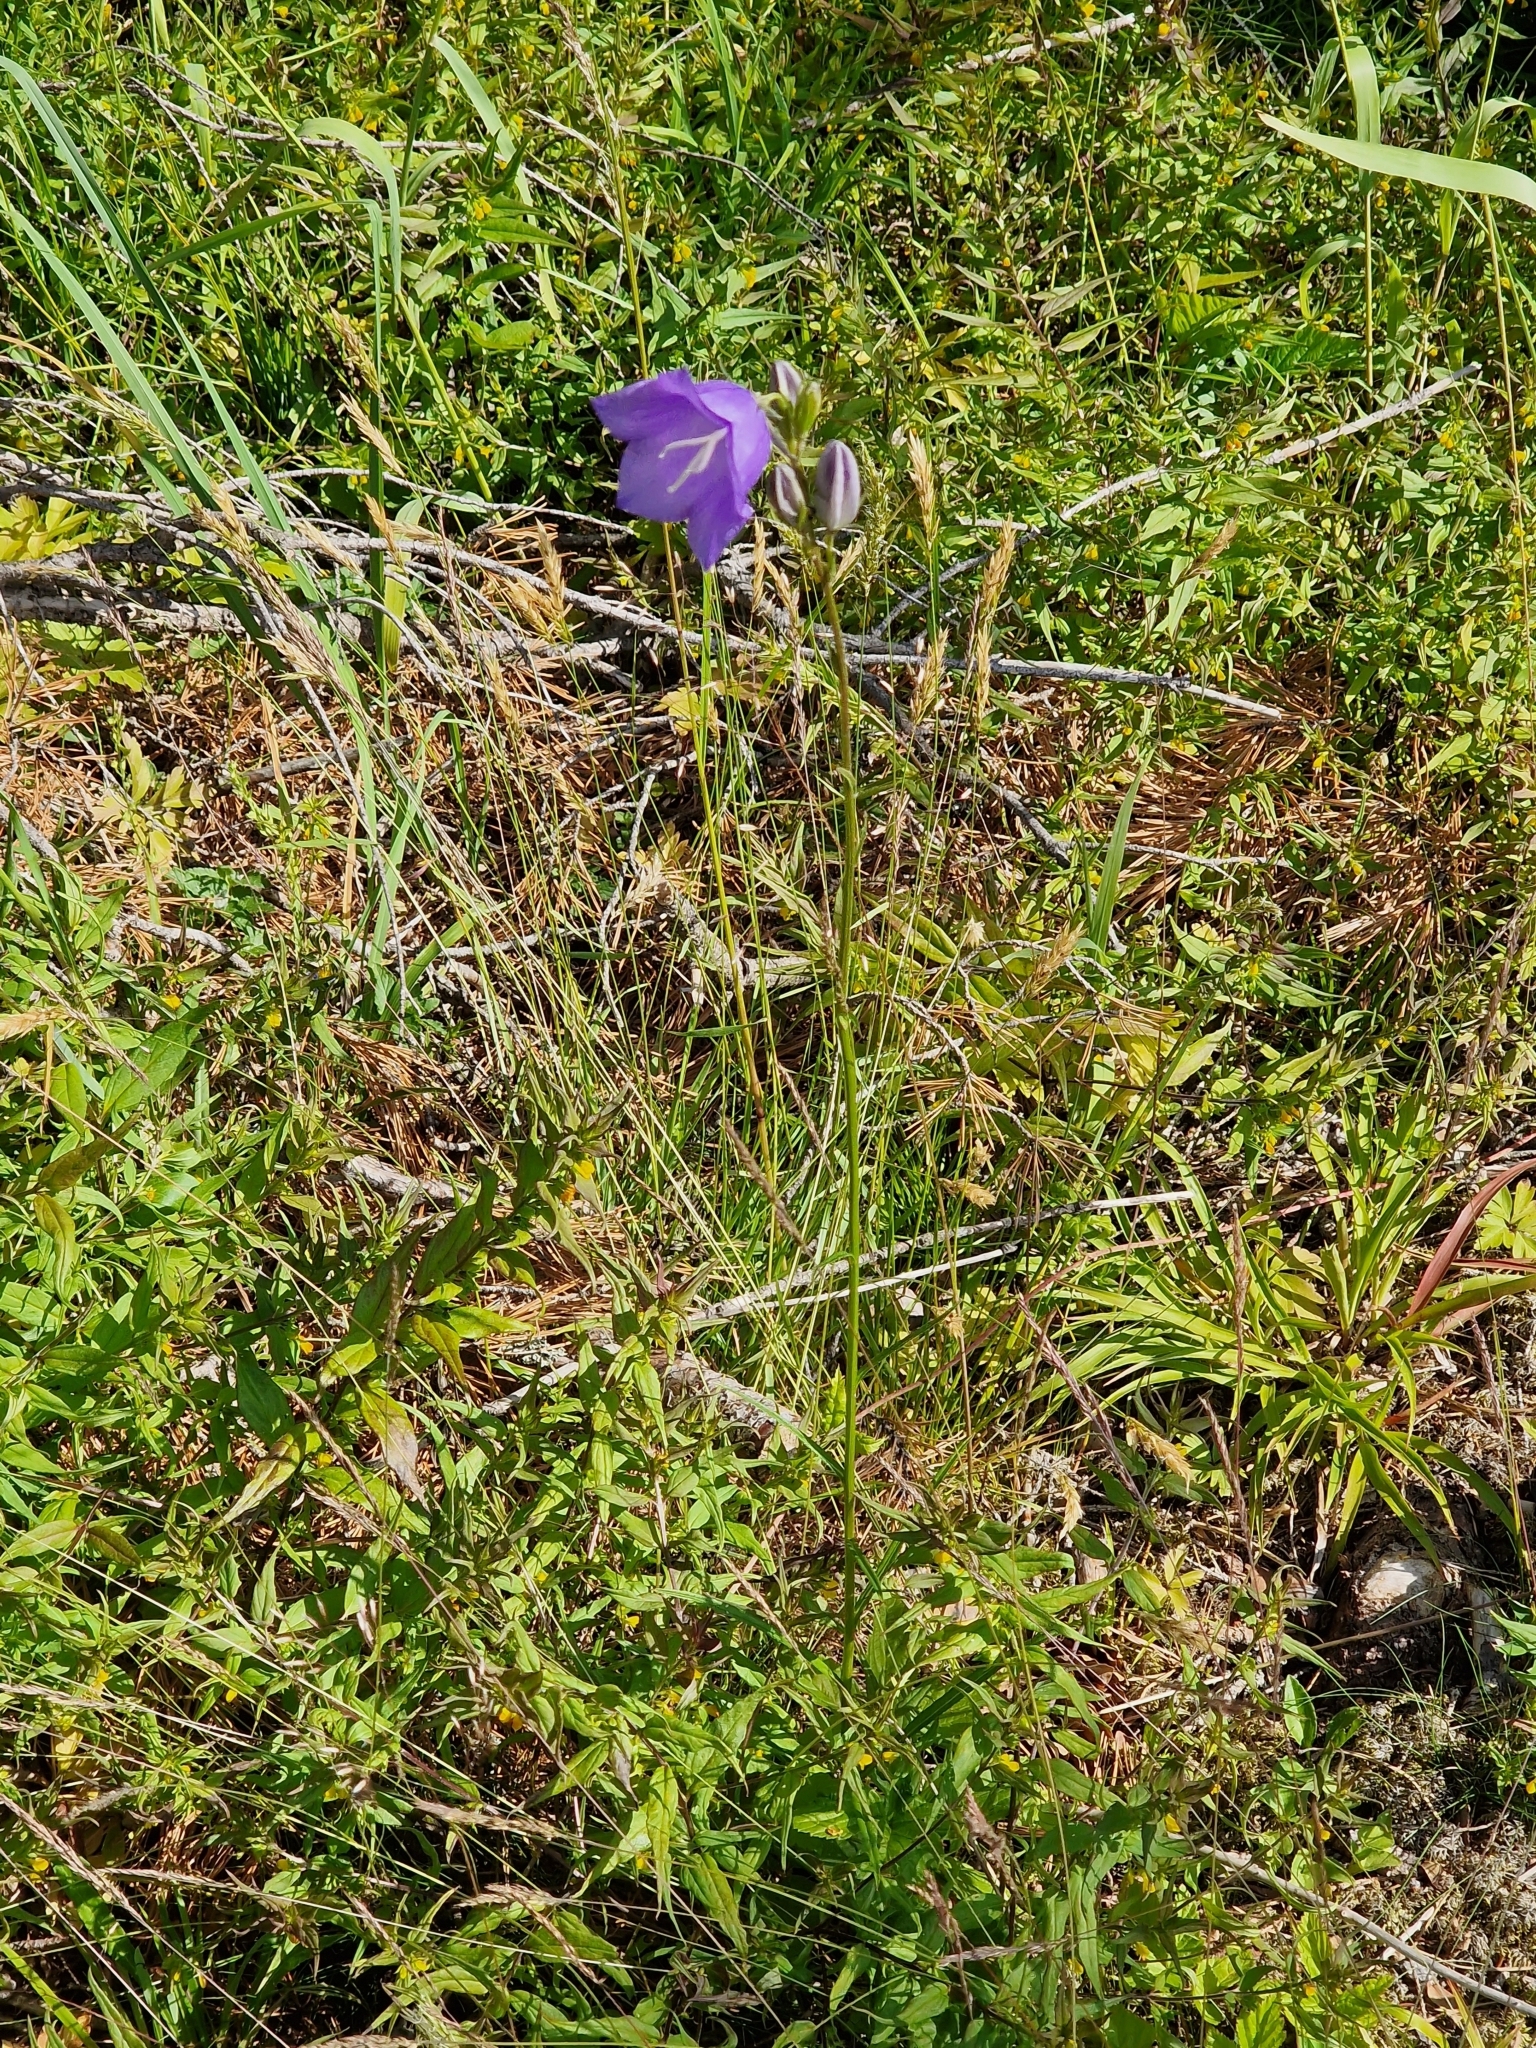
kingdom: Plantae
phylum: Tracheophyta
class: Magnoliopsida
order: Asterales
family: Campanulaceae
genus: Campanula
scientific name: Campanula persicifolia
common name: Peach-leaved bellflower
